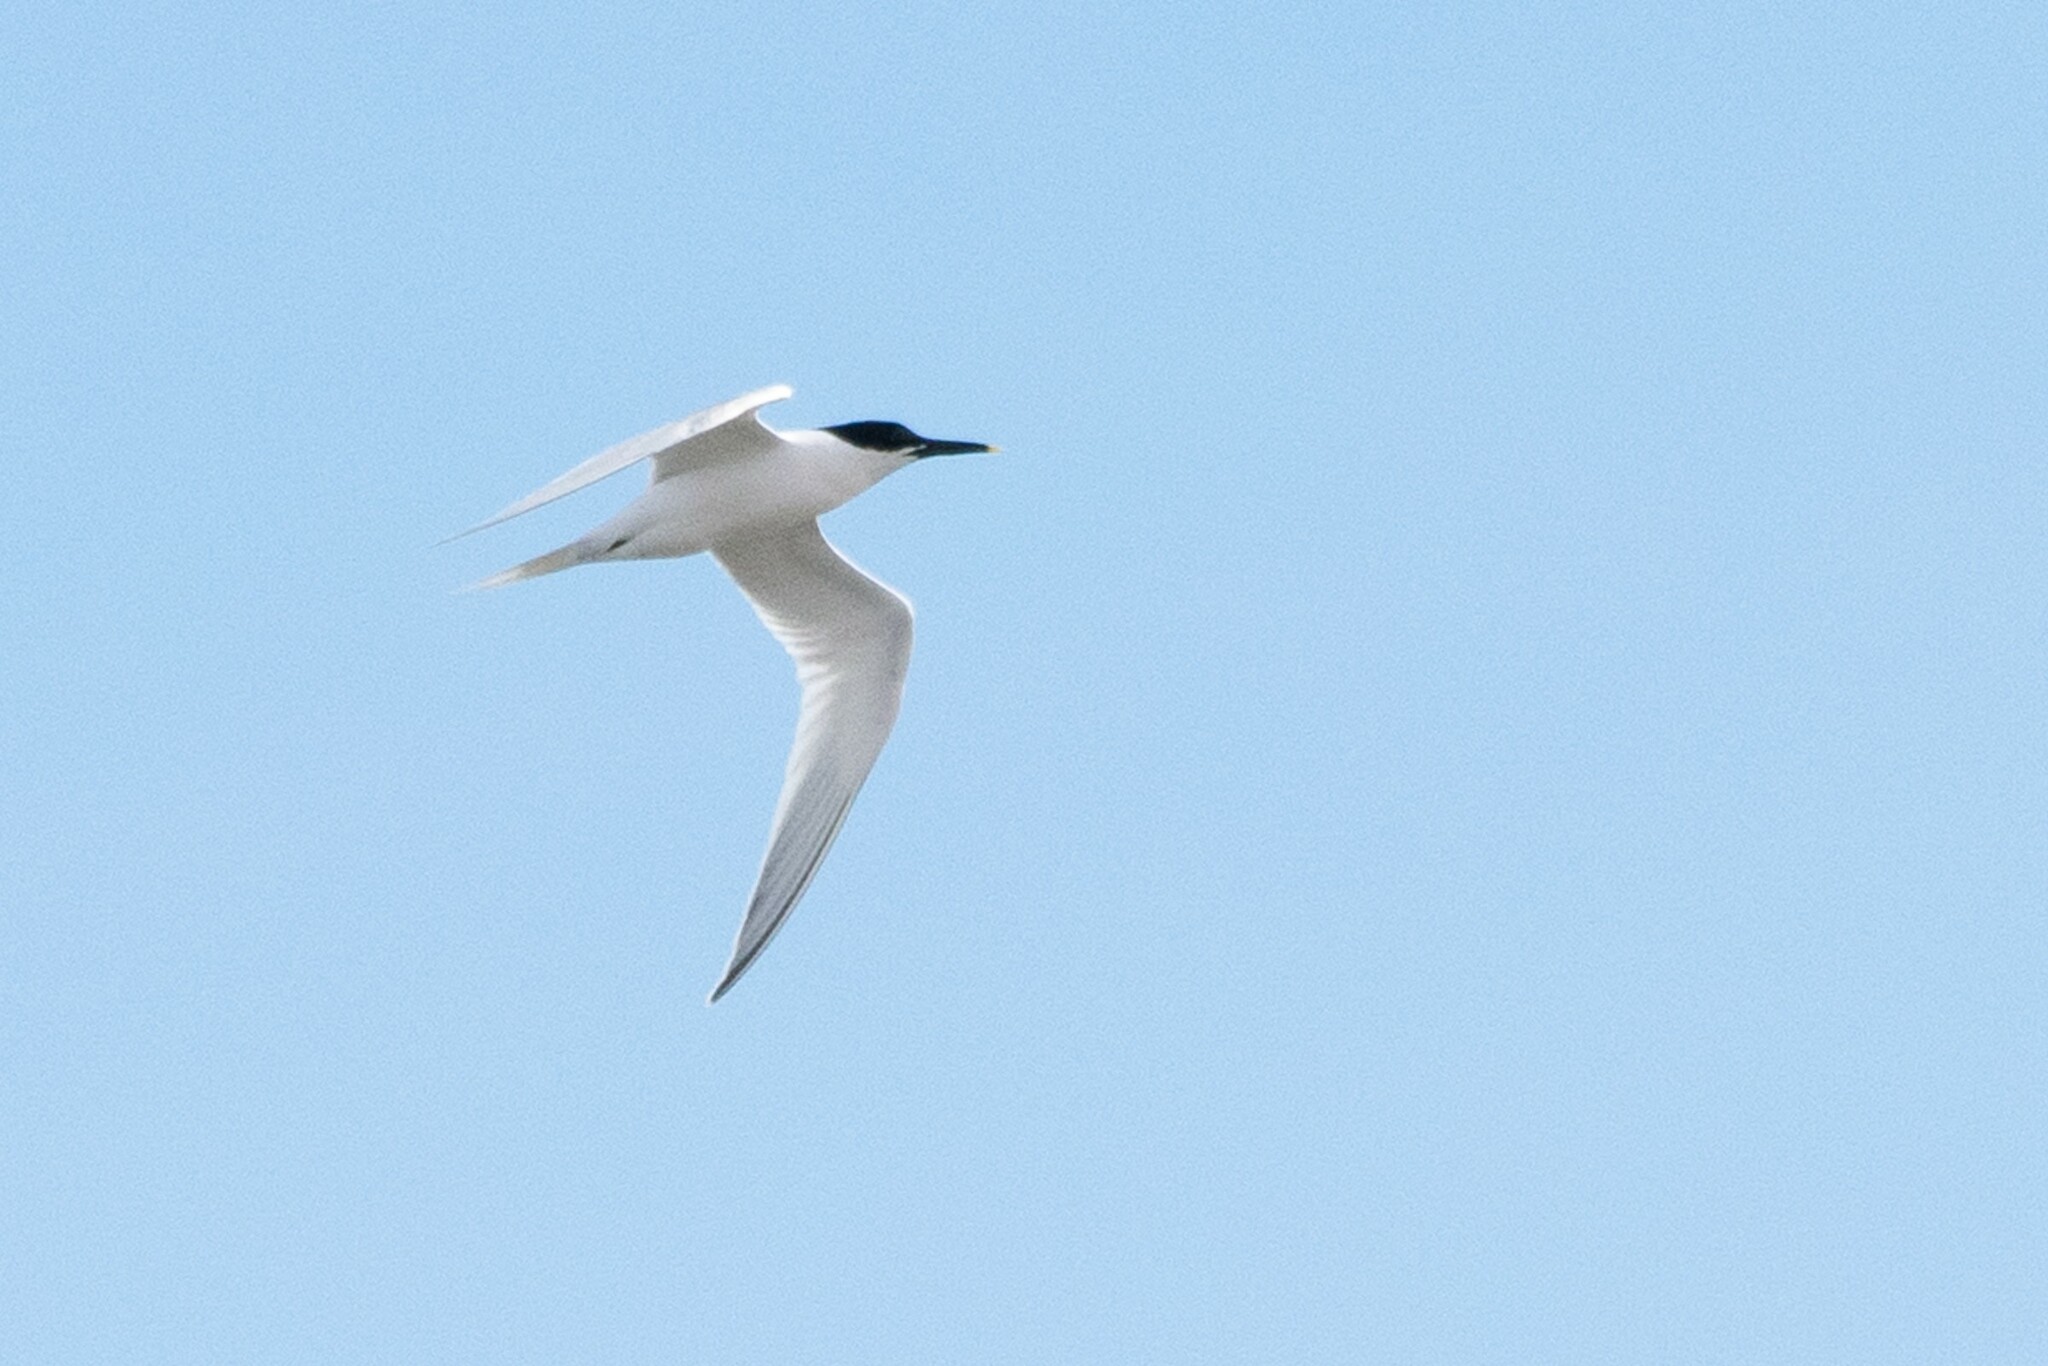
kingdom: Animalia
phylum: Chordata
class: Aves
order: Charadriiformes
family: Laridae
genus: Thalasseus
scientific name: Thalasseus sandvicensis
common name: Sandwich tern
